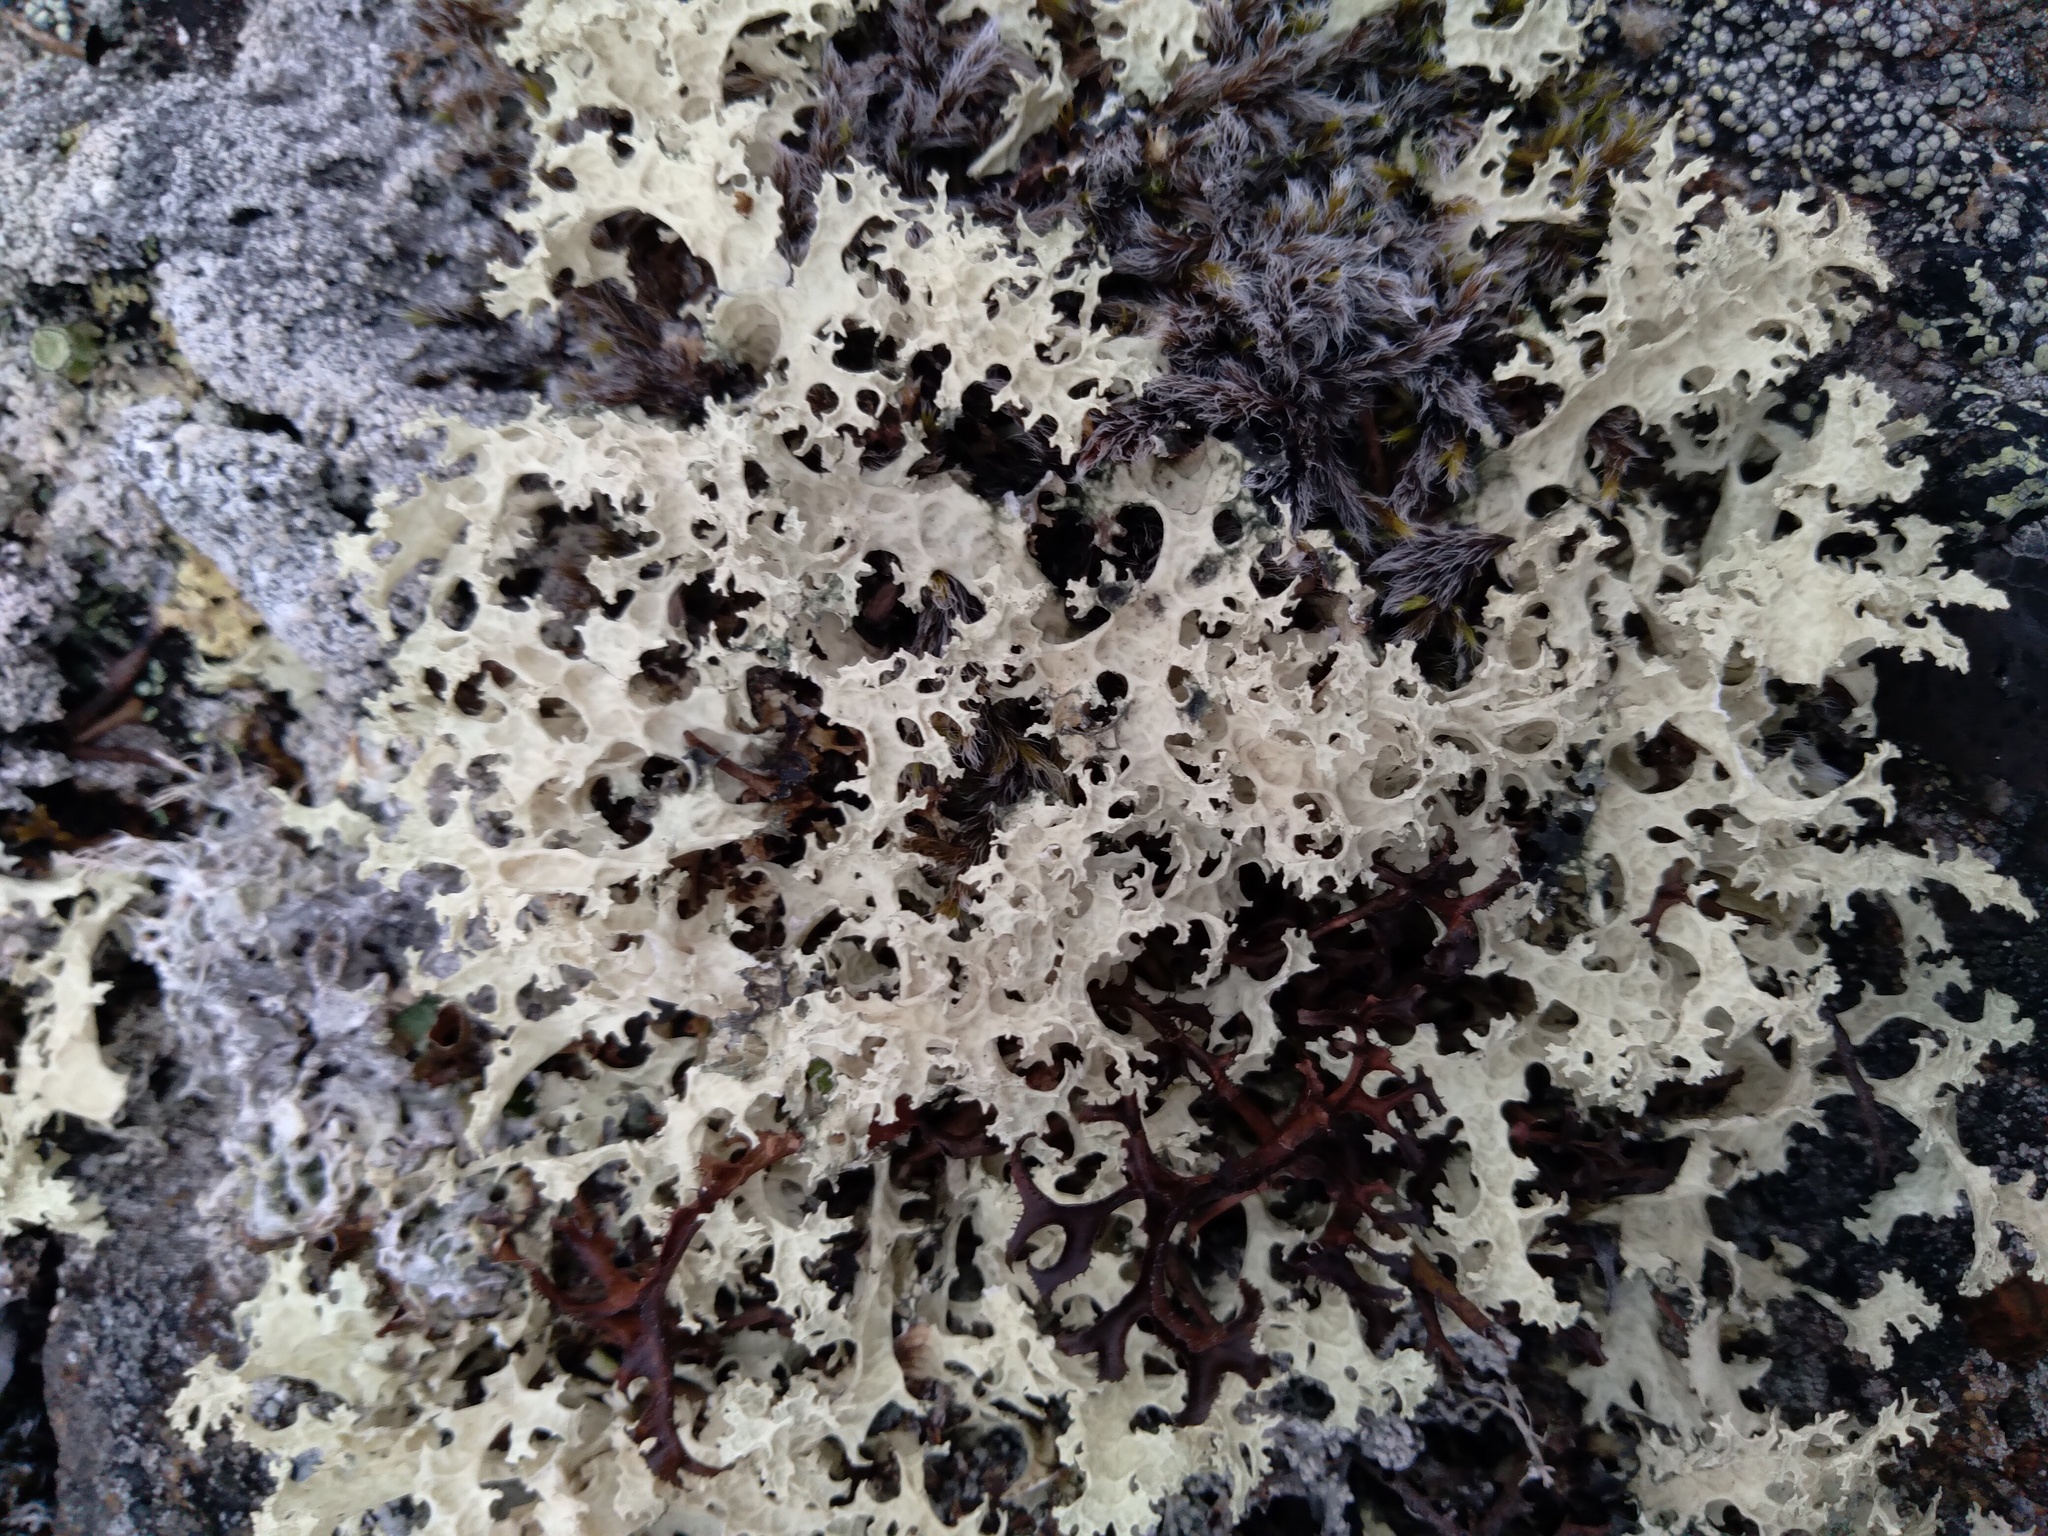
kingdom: Fungi
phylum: Ascomycota
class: Lecanoromycetes
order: Lecanorales
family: Parmeliaceae
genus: Nephromopsis
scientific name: Nephromopsis nivalis
